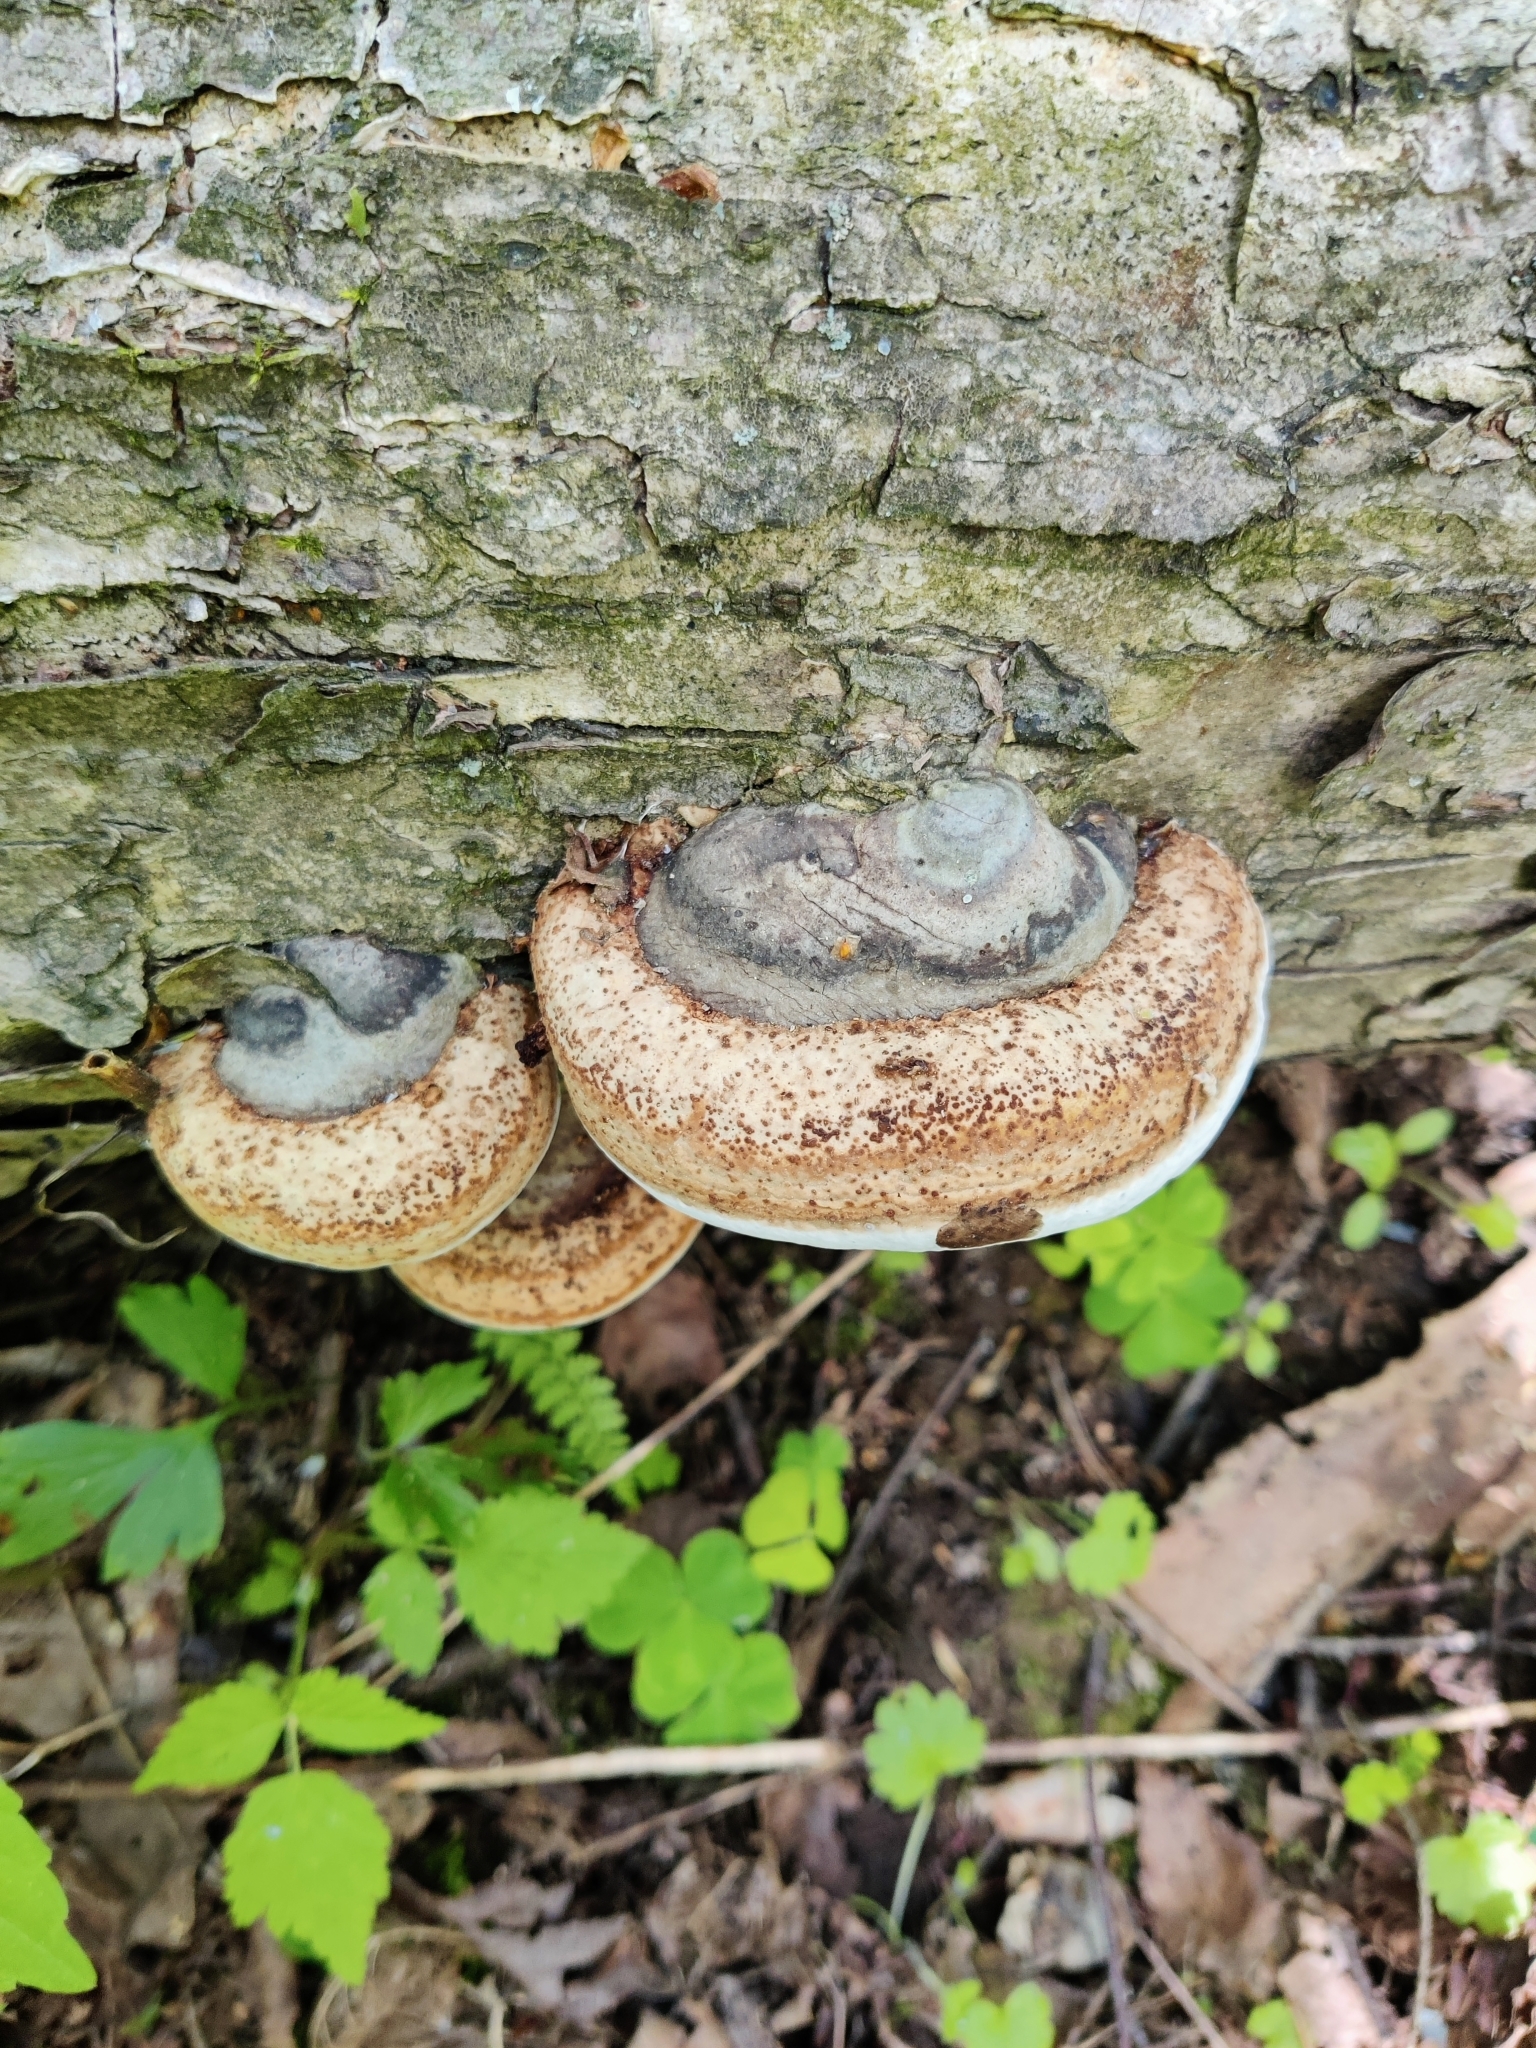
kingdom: Fungi
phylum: Basidiomycota
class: Agaricomycetes
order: Polyporales
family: Polyporaceae
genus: Fomes
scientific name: Fomes fomentarius
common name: Hoof fungus
